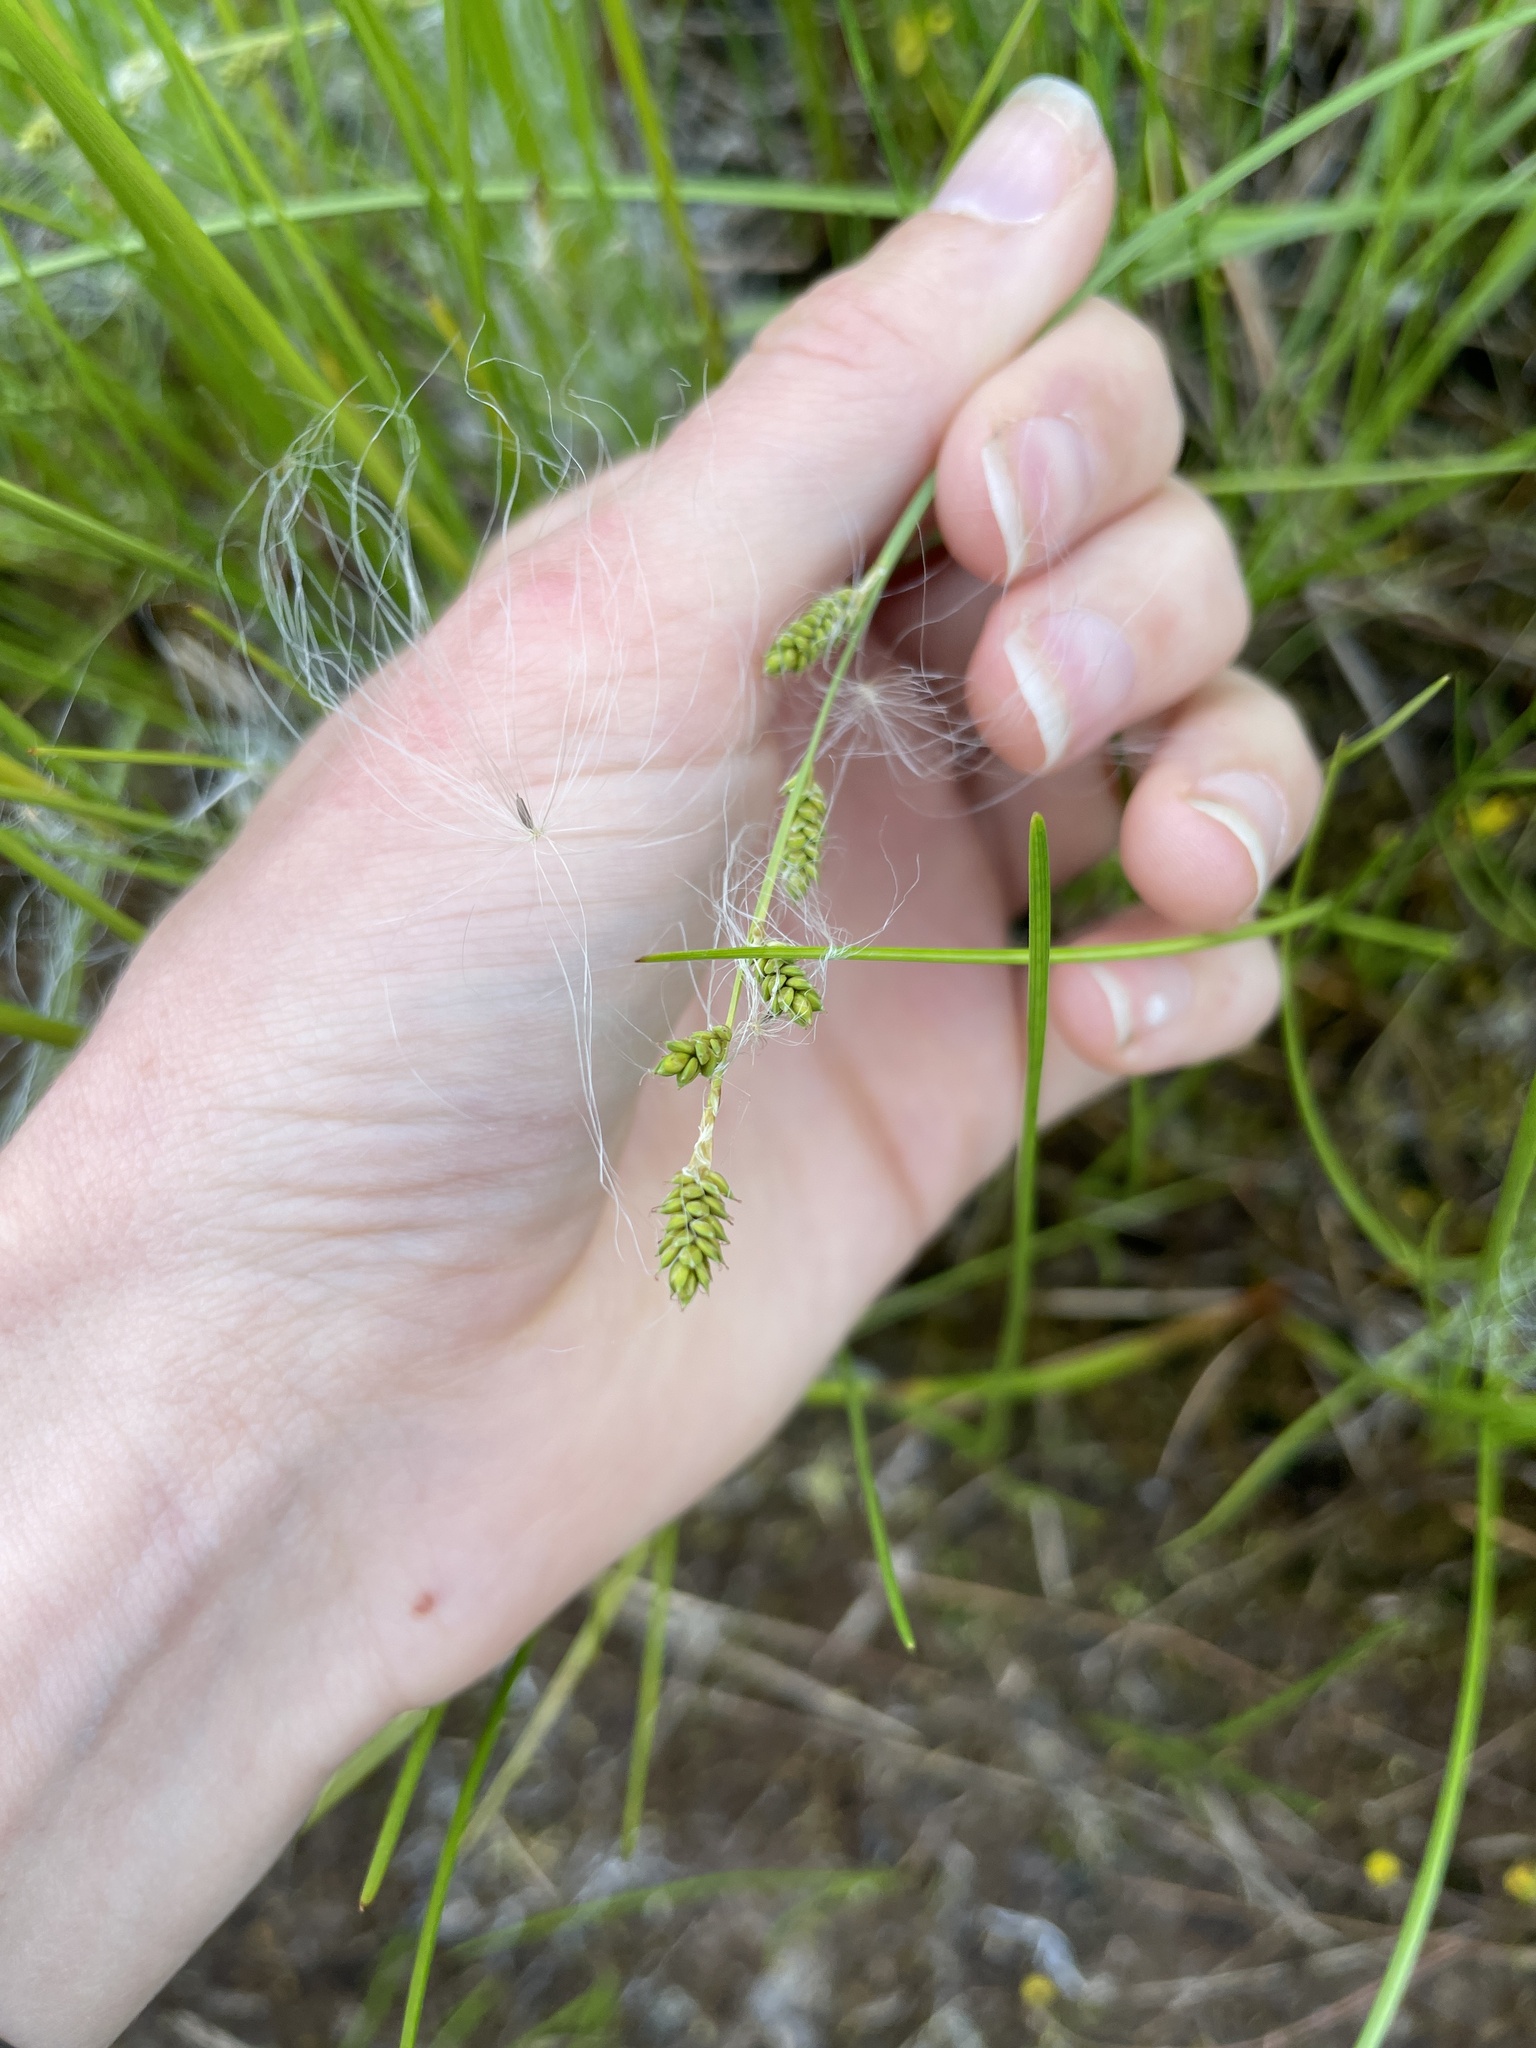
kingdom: Plantae
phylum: Tracheophyta
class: Liliopsida
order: Poales
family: Cyperaceae
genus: Carex
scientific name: Carex canescens
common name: White sedge
